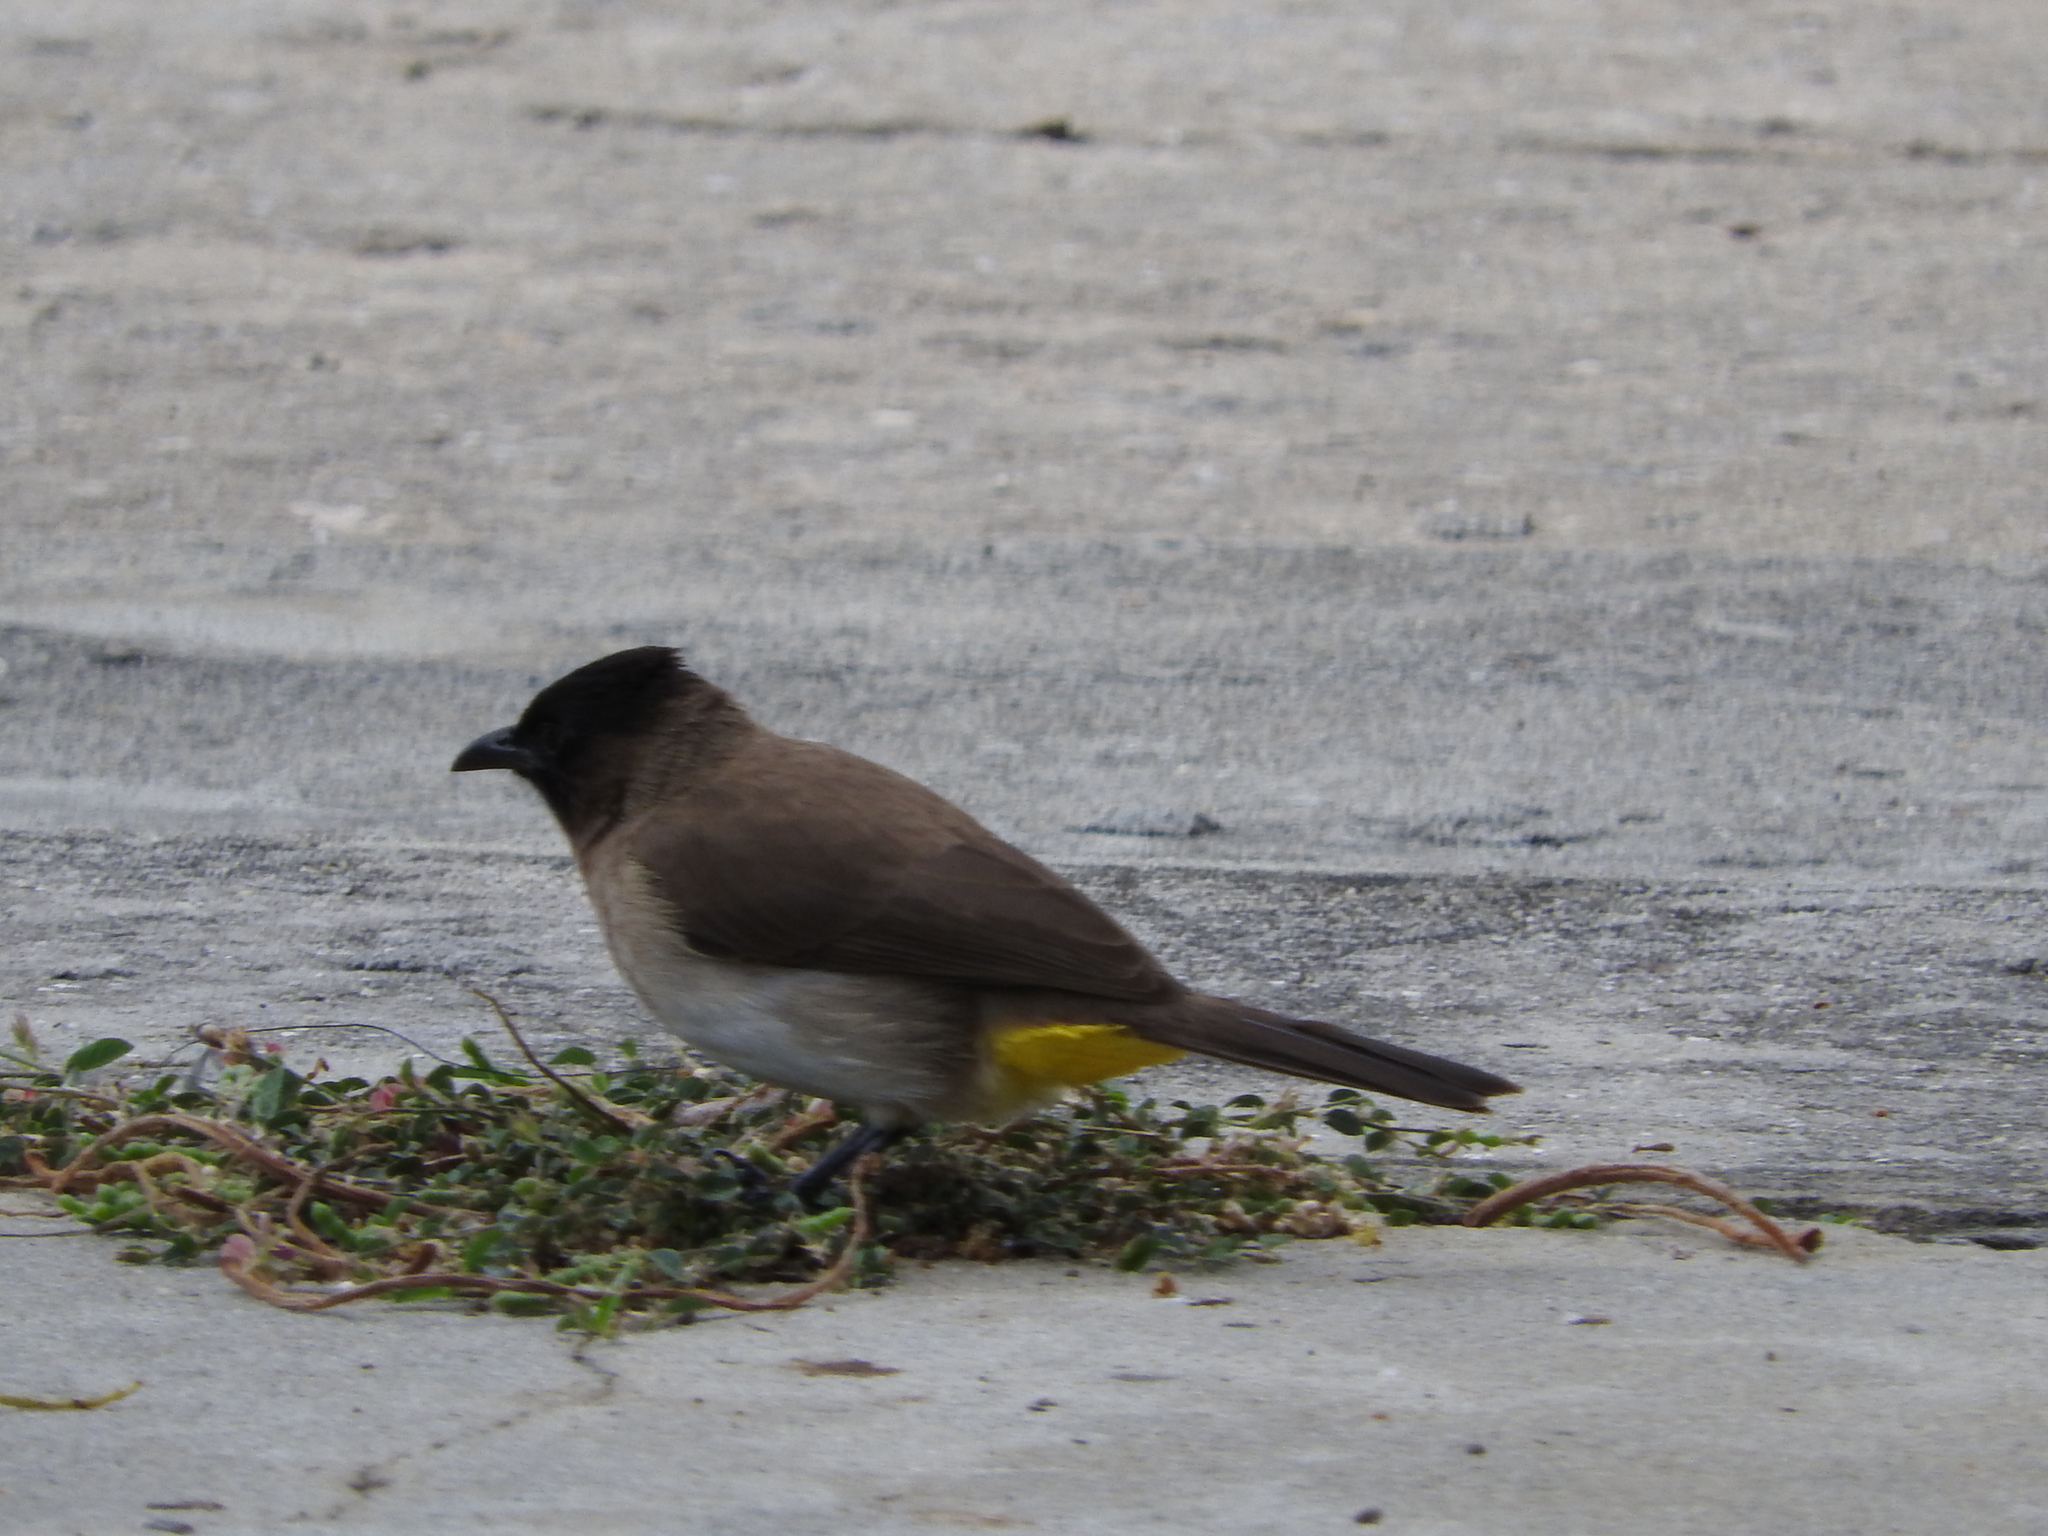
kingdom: Animalia
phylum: Chordata
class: Aves
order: Passeriformes
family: Pycnonotidae
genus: Pycnonotus
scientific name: Pycnonotus barbatus
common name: Common bulbul
